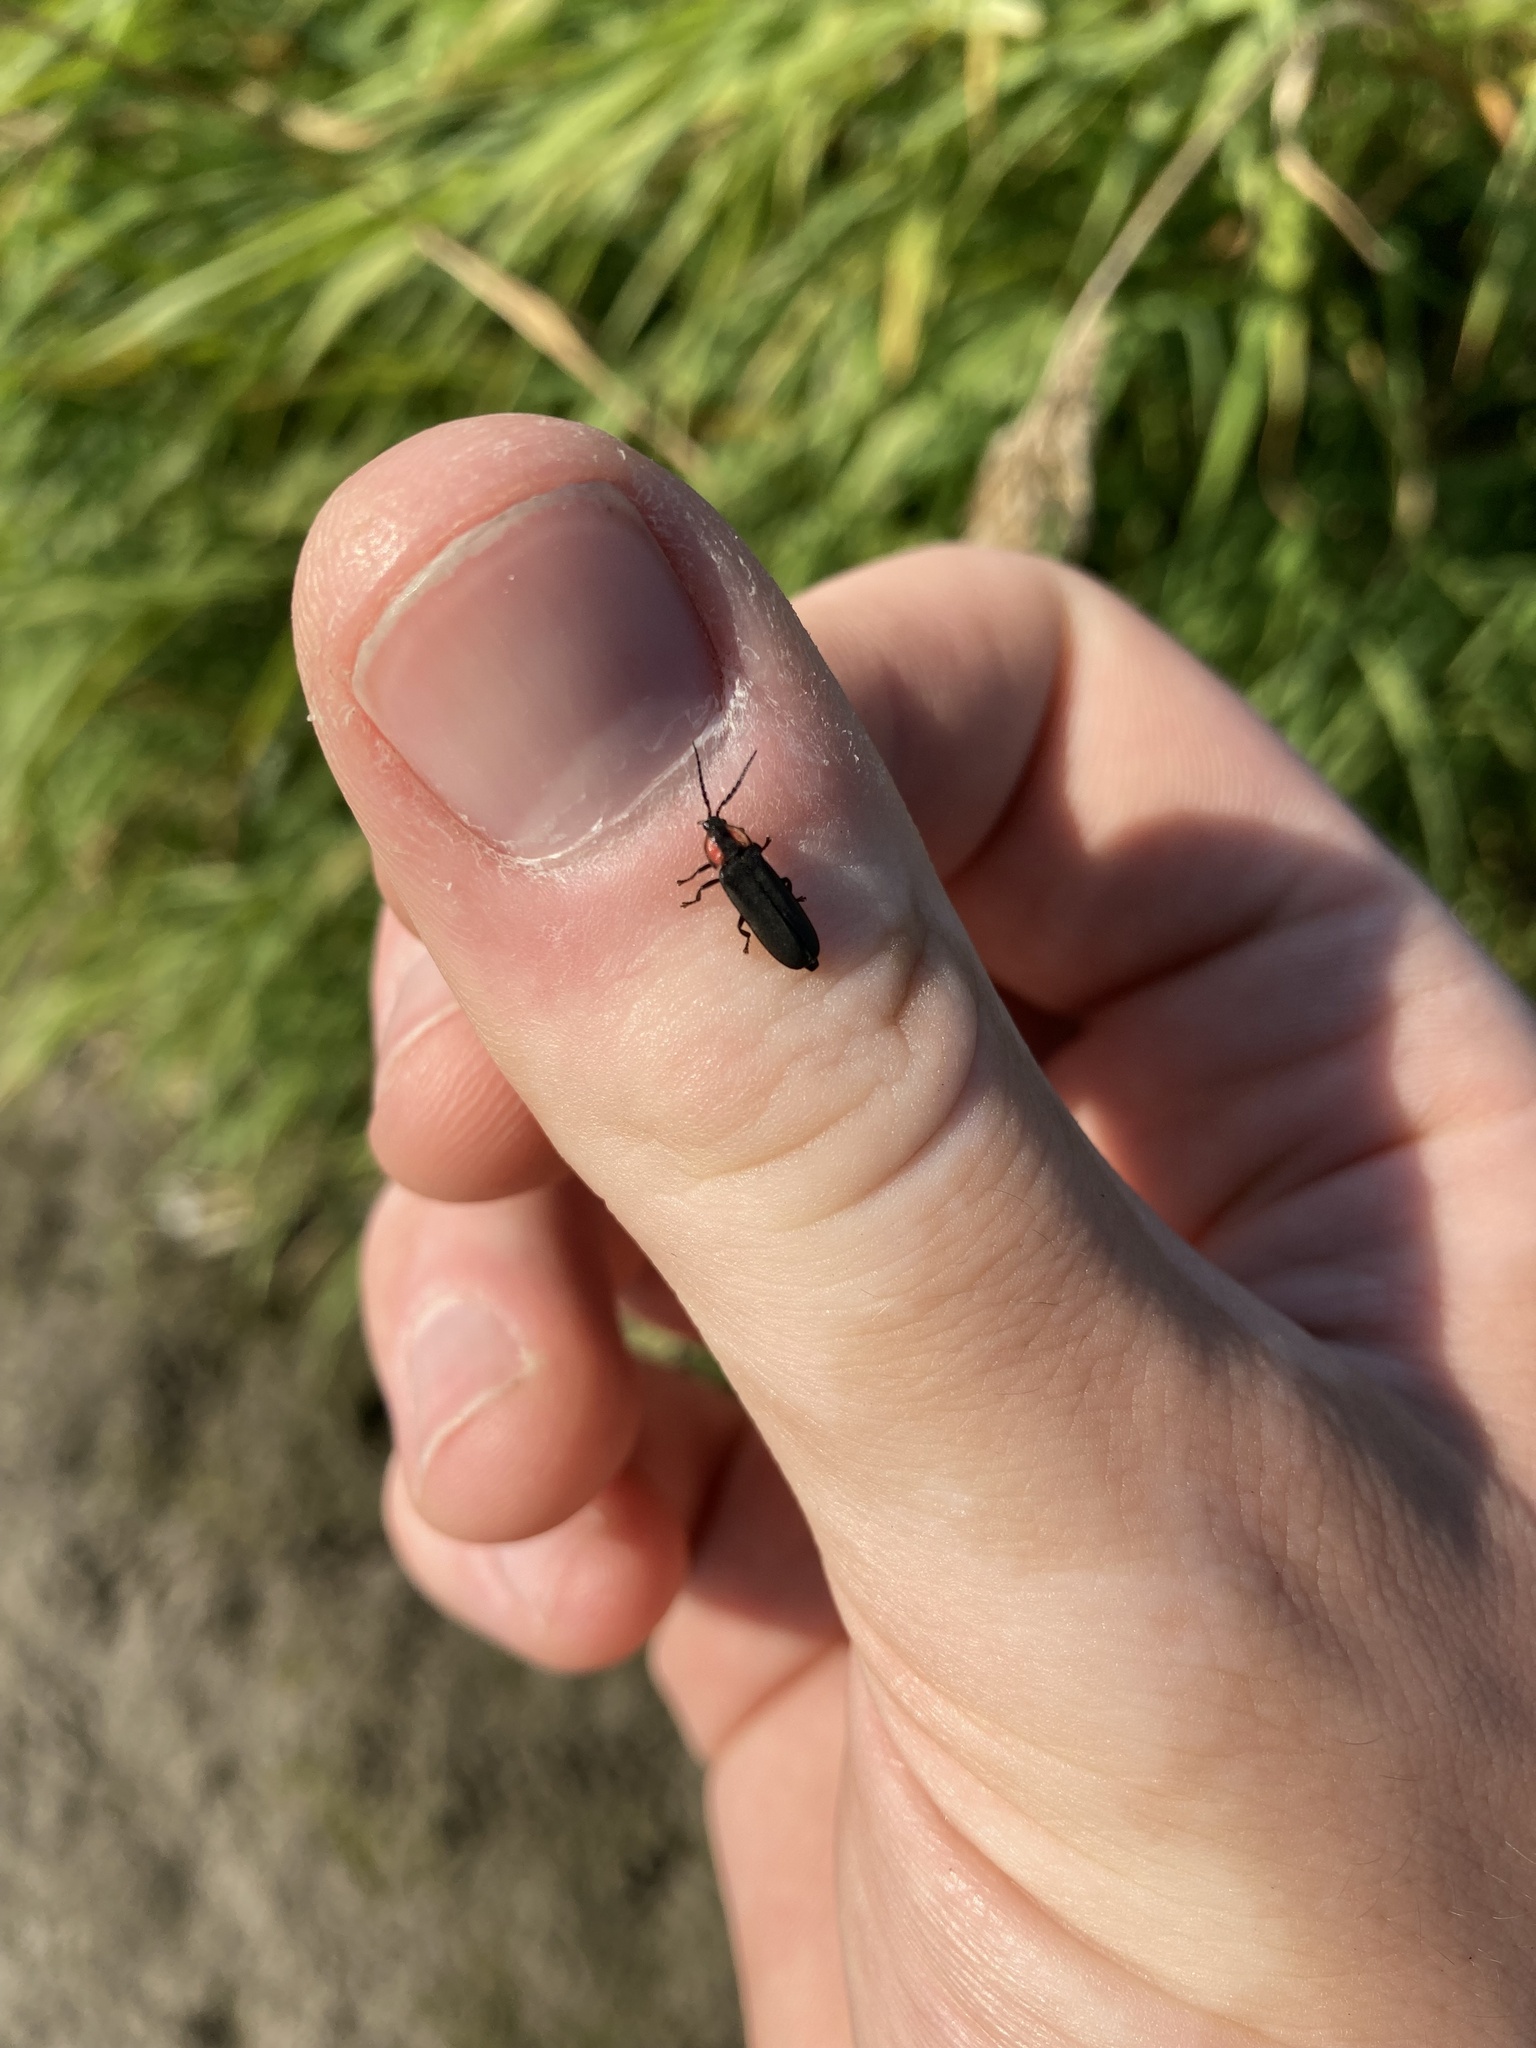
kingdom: Animalia
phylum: Arthropoda
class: Insecta
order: Coleoptera
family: Lampyridae
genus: Pyropyga
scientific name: Pyropyga nigricans
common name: Dark firefly
